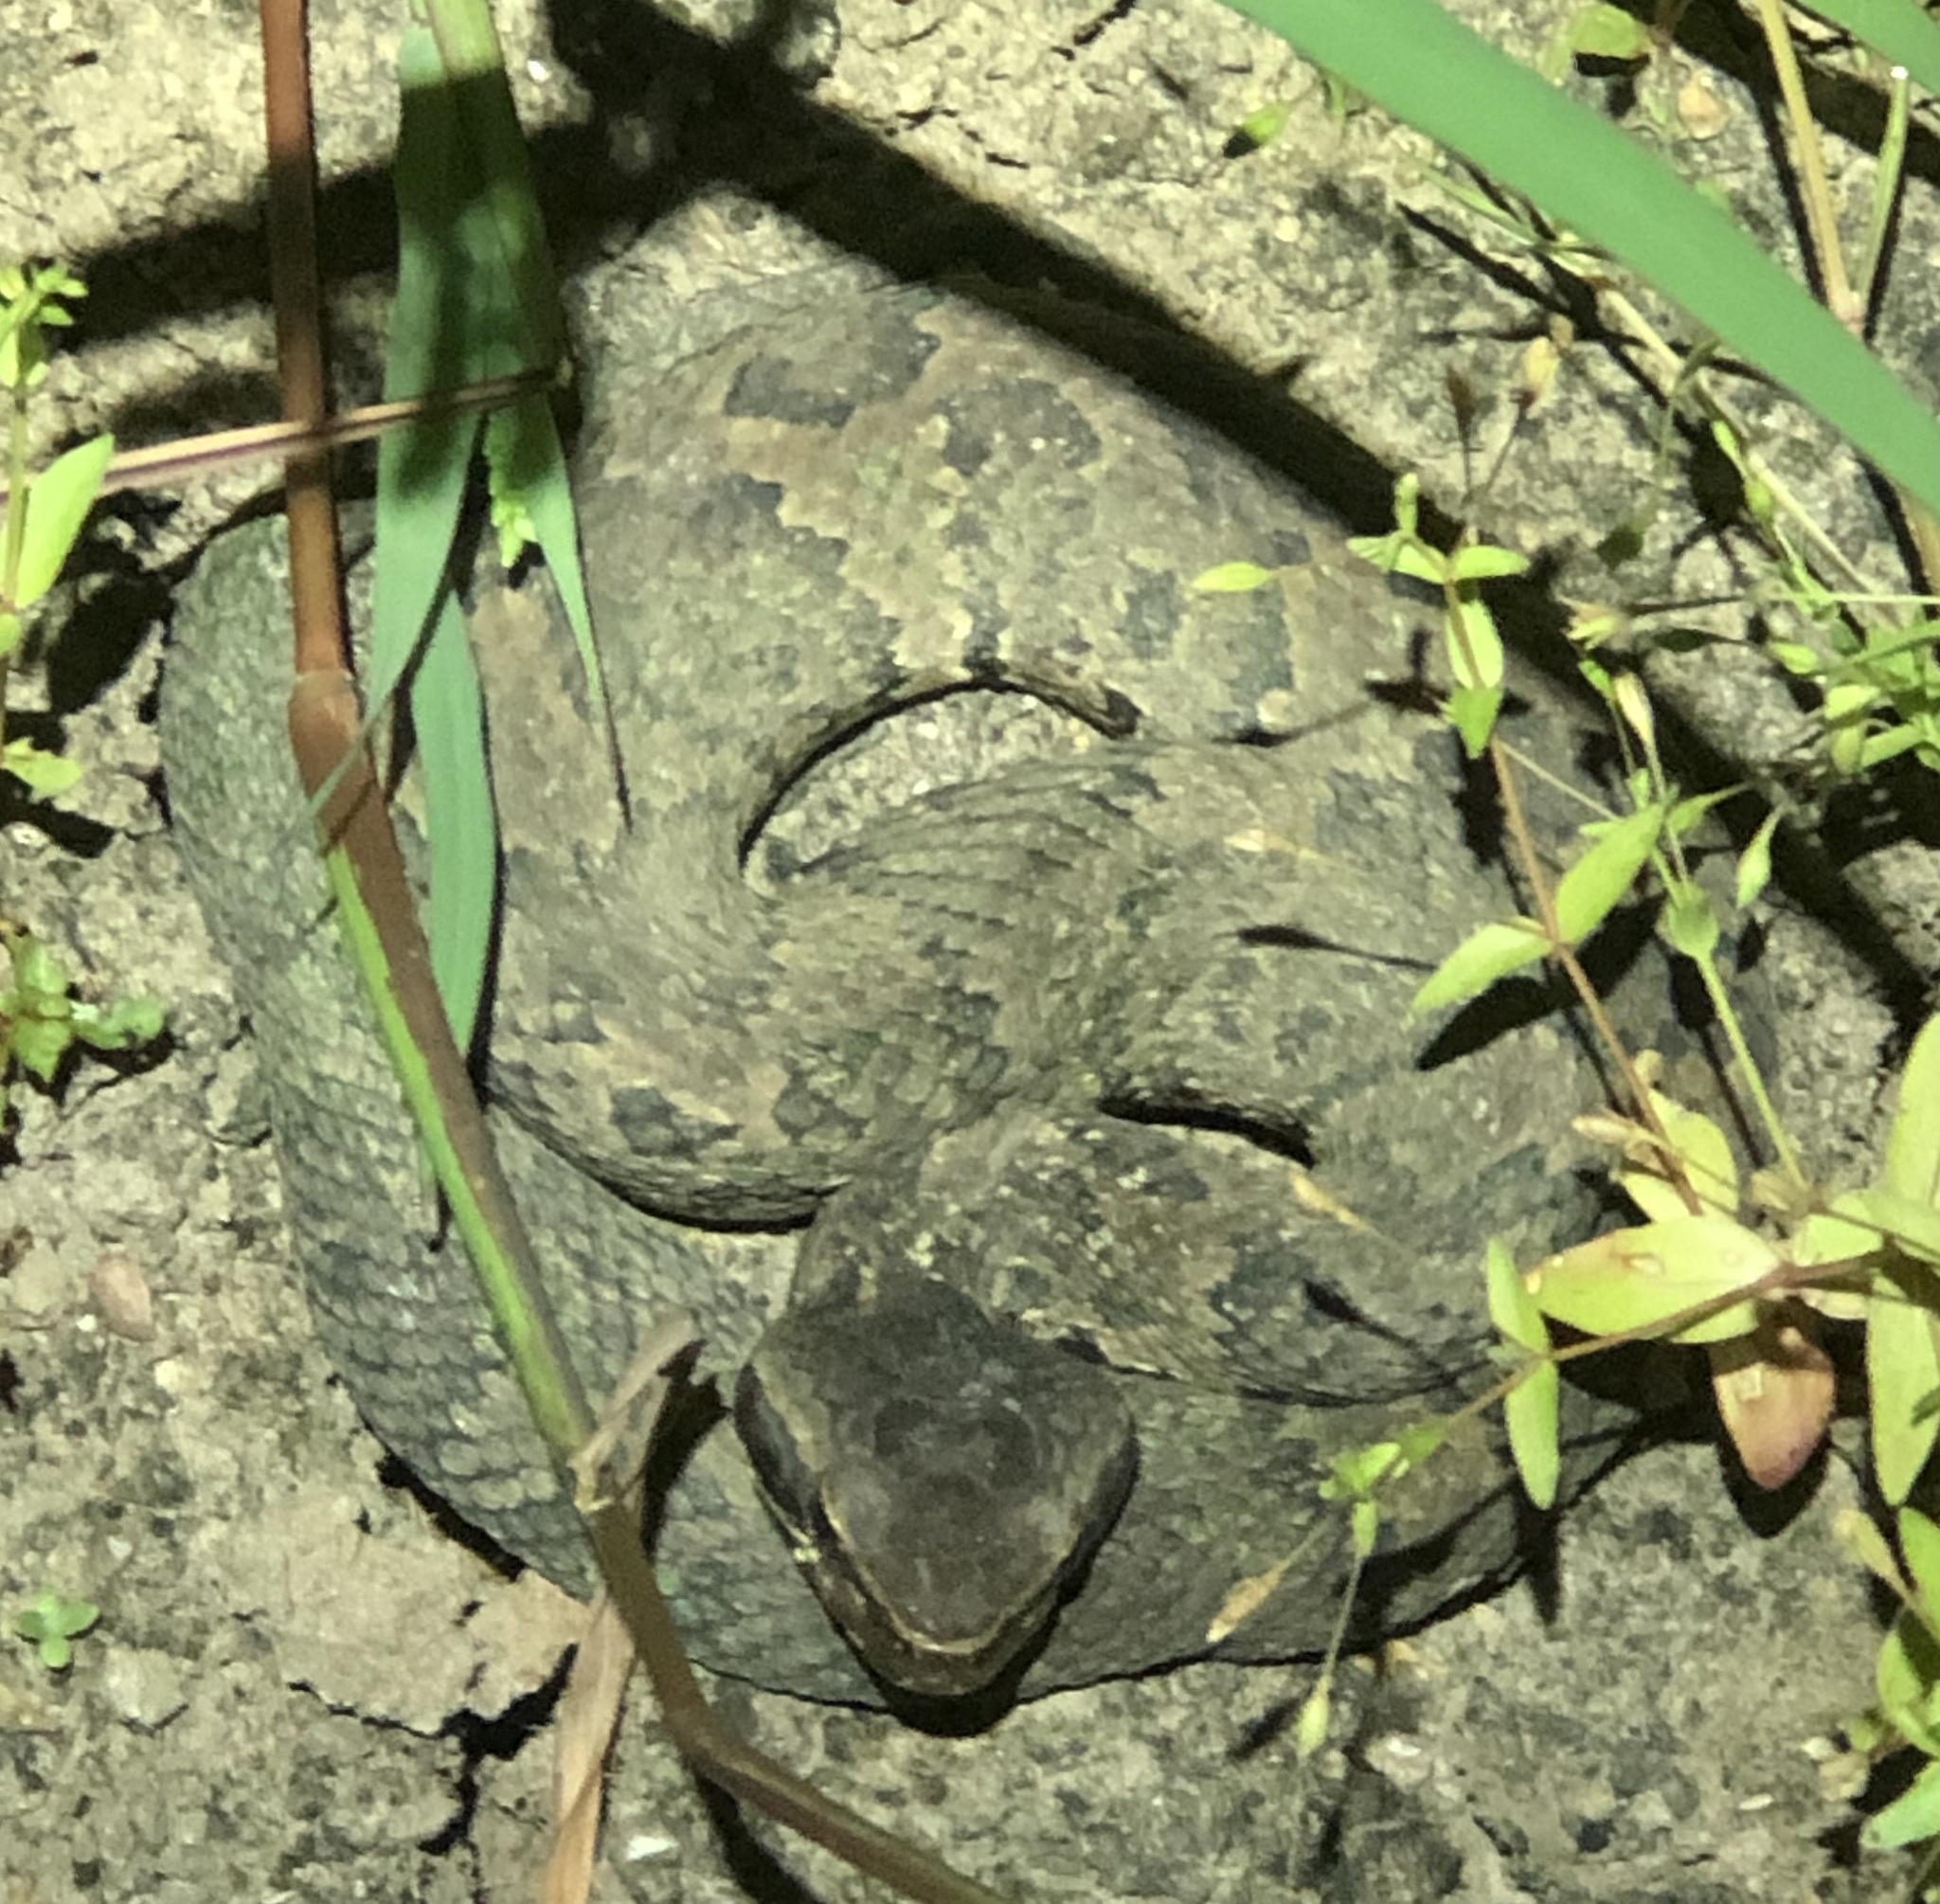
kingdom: Animalia
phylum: Chordata
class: Squamata
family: Viperidae
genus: Agkistrodon
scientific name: Agkistrodon piscivorus
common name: Cottonmouth
